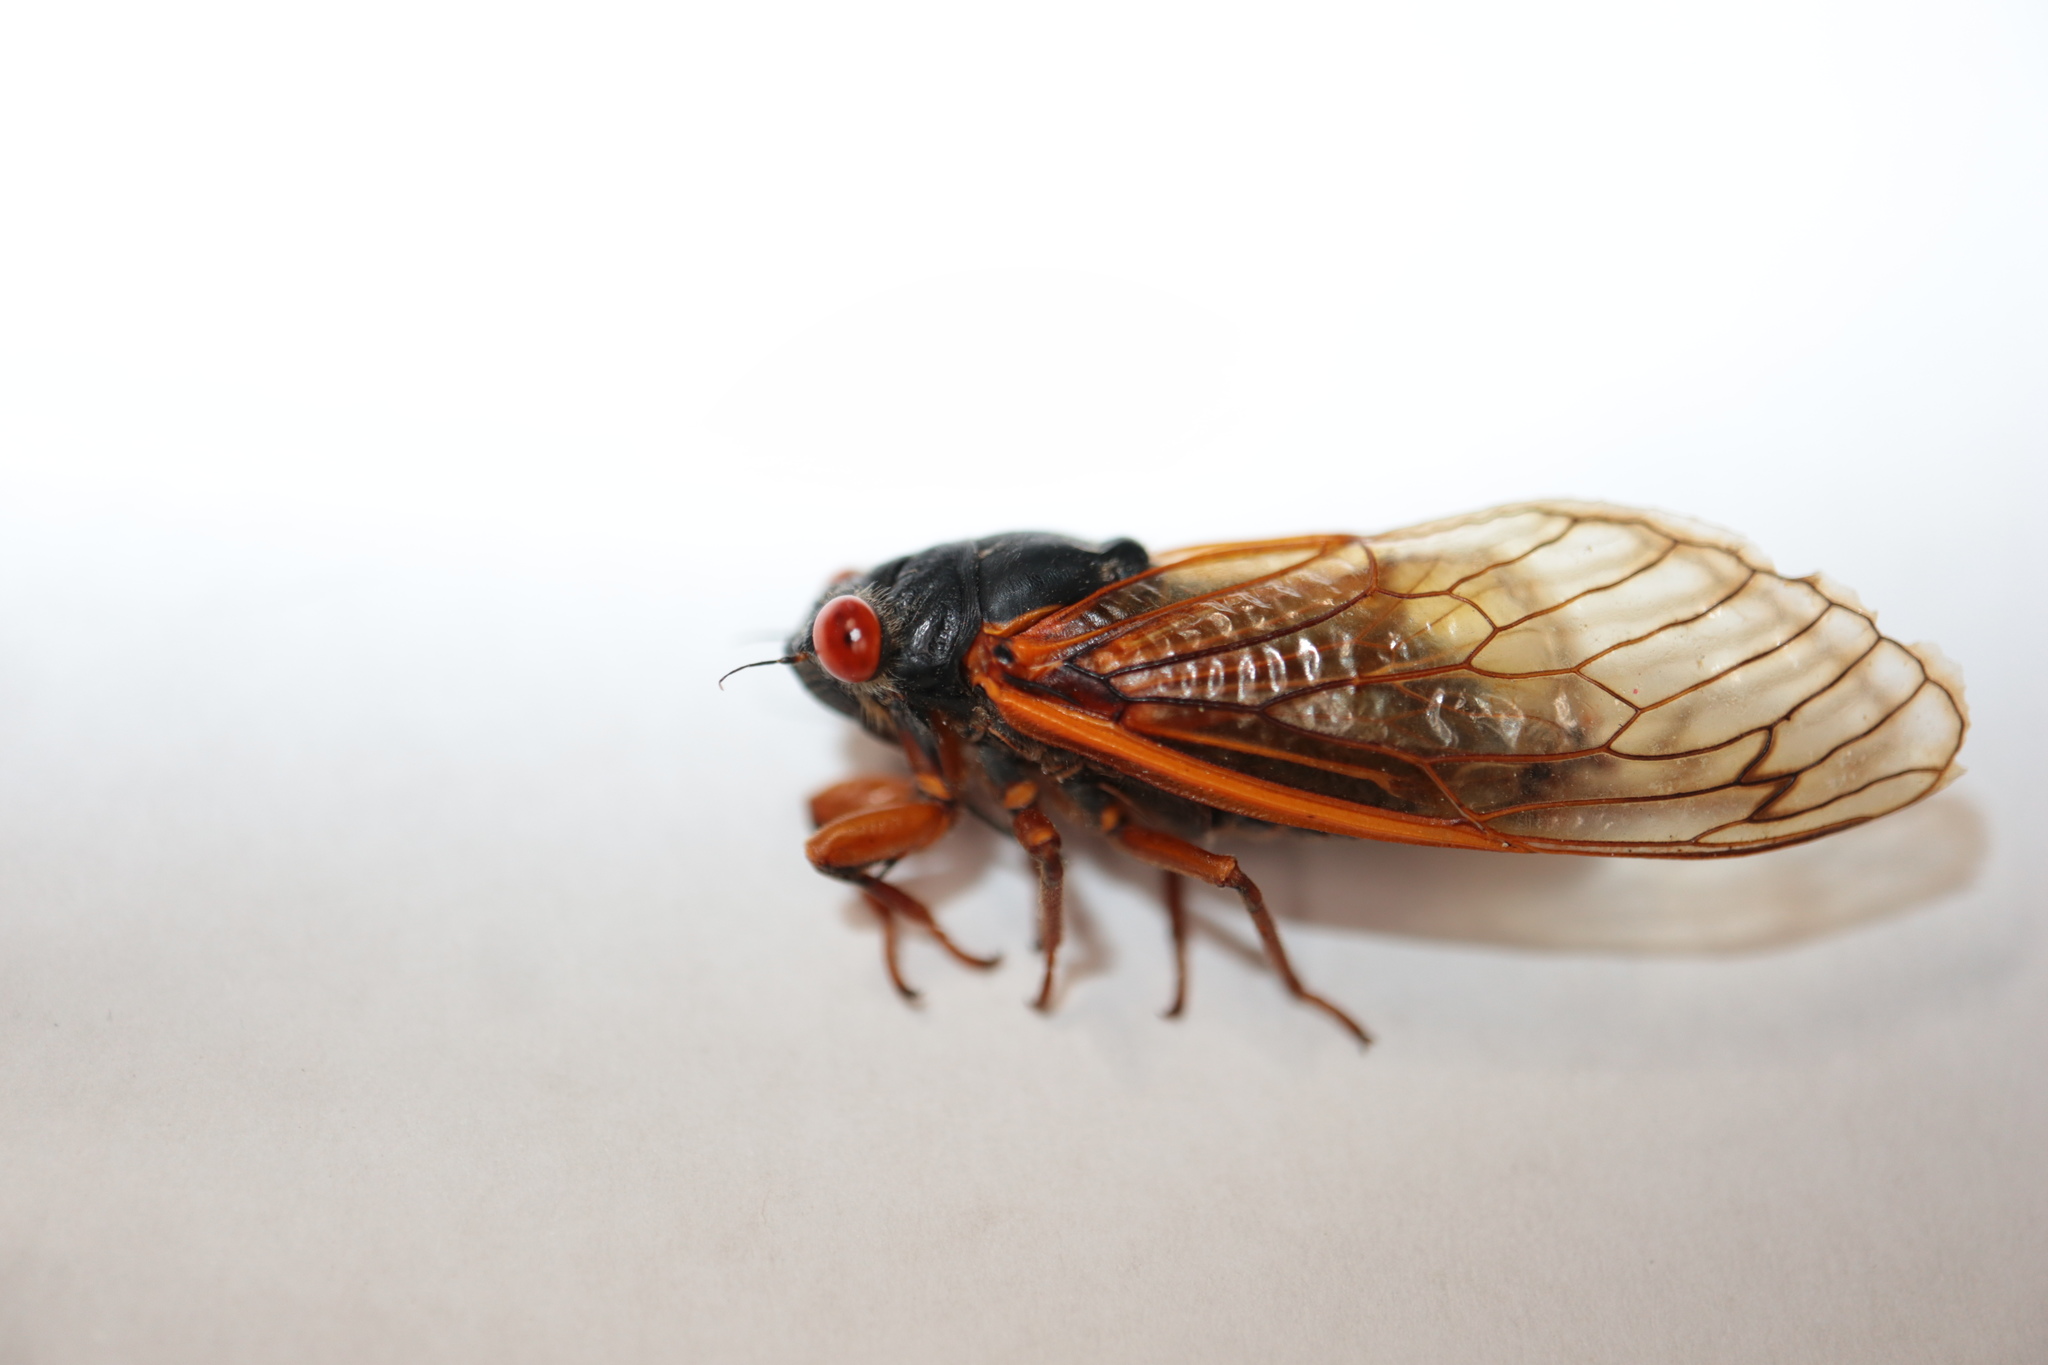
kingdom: Animalia
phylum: Arthropoda
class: Insecta
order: Hemiptera
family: Cicadidae
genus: Magicicada
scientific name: Magicicada septendecula
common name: Decula periodical cicada
